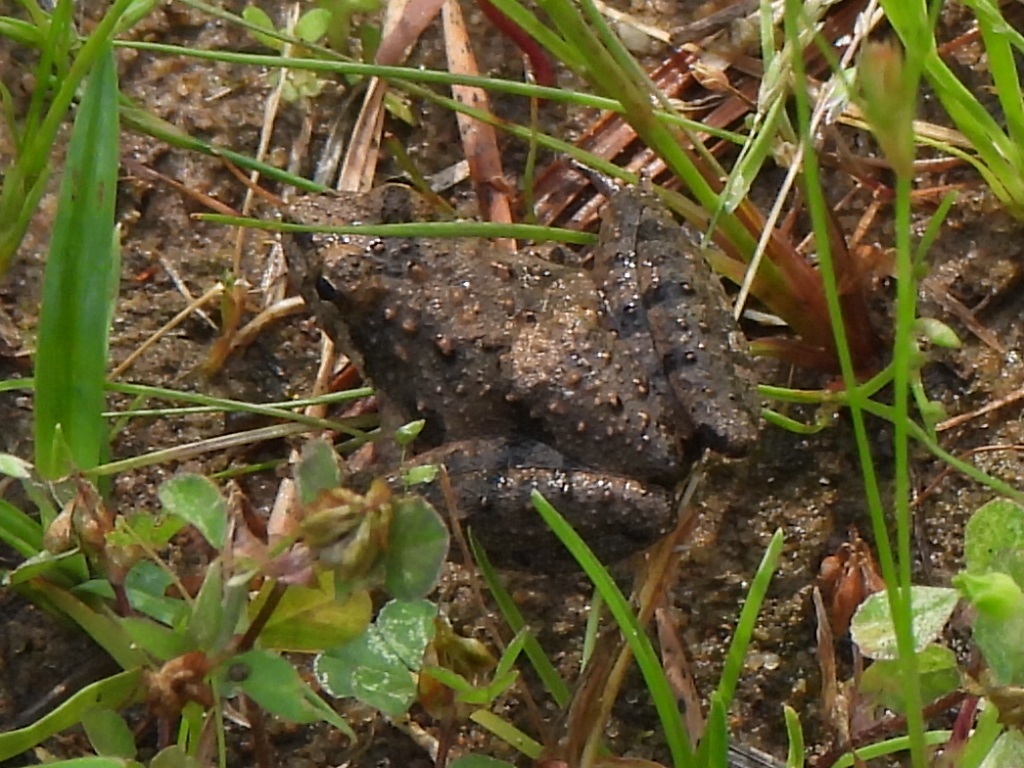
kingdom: Animalia
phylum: Chordata
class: Amphibia
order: Anura
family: Hylidae
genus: Acris
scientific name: Acris blanchardi
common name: Blanchard's cricket frog
